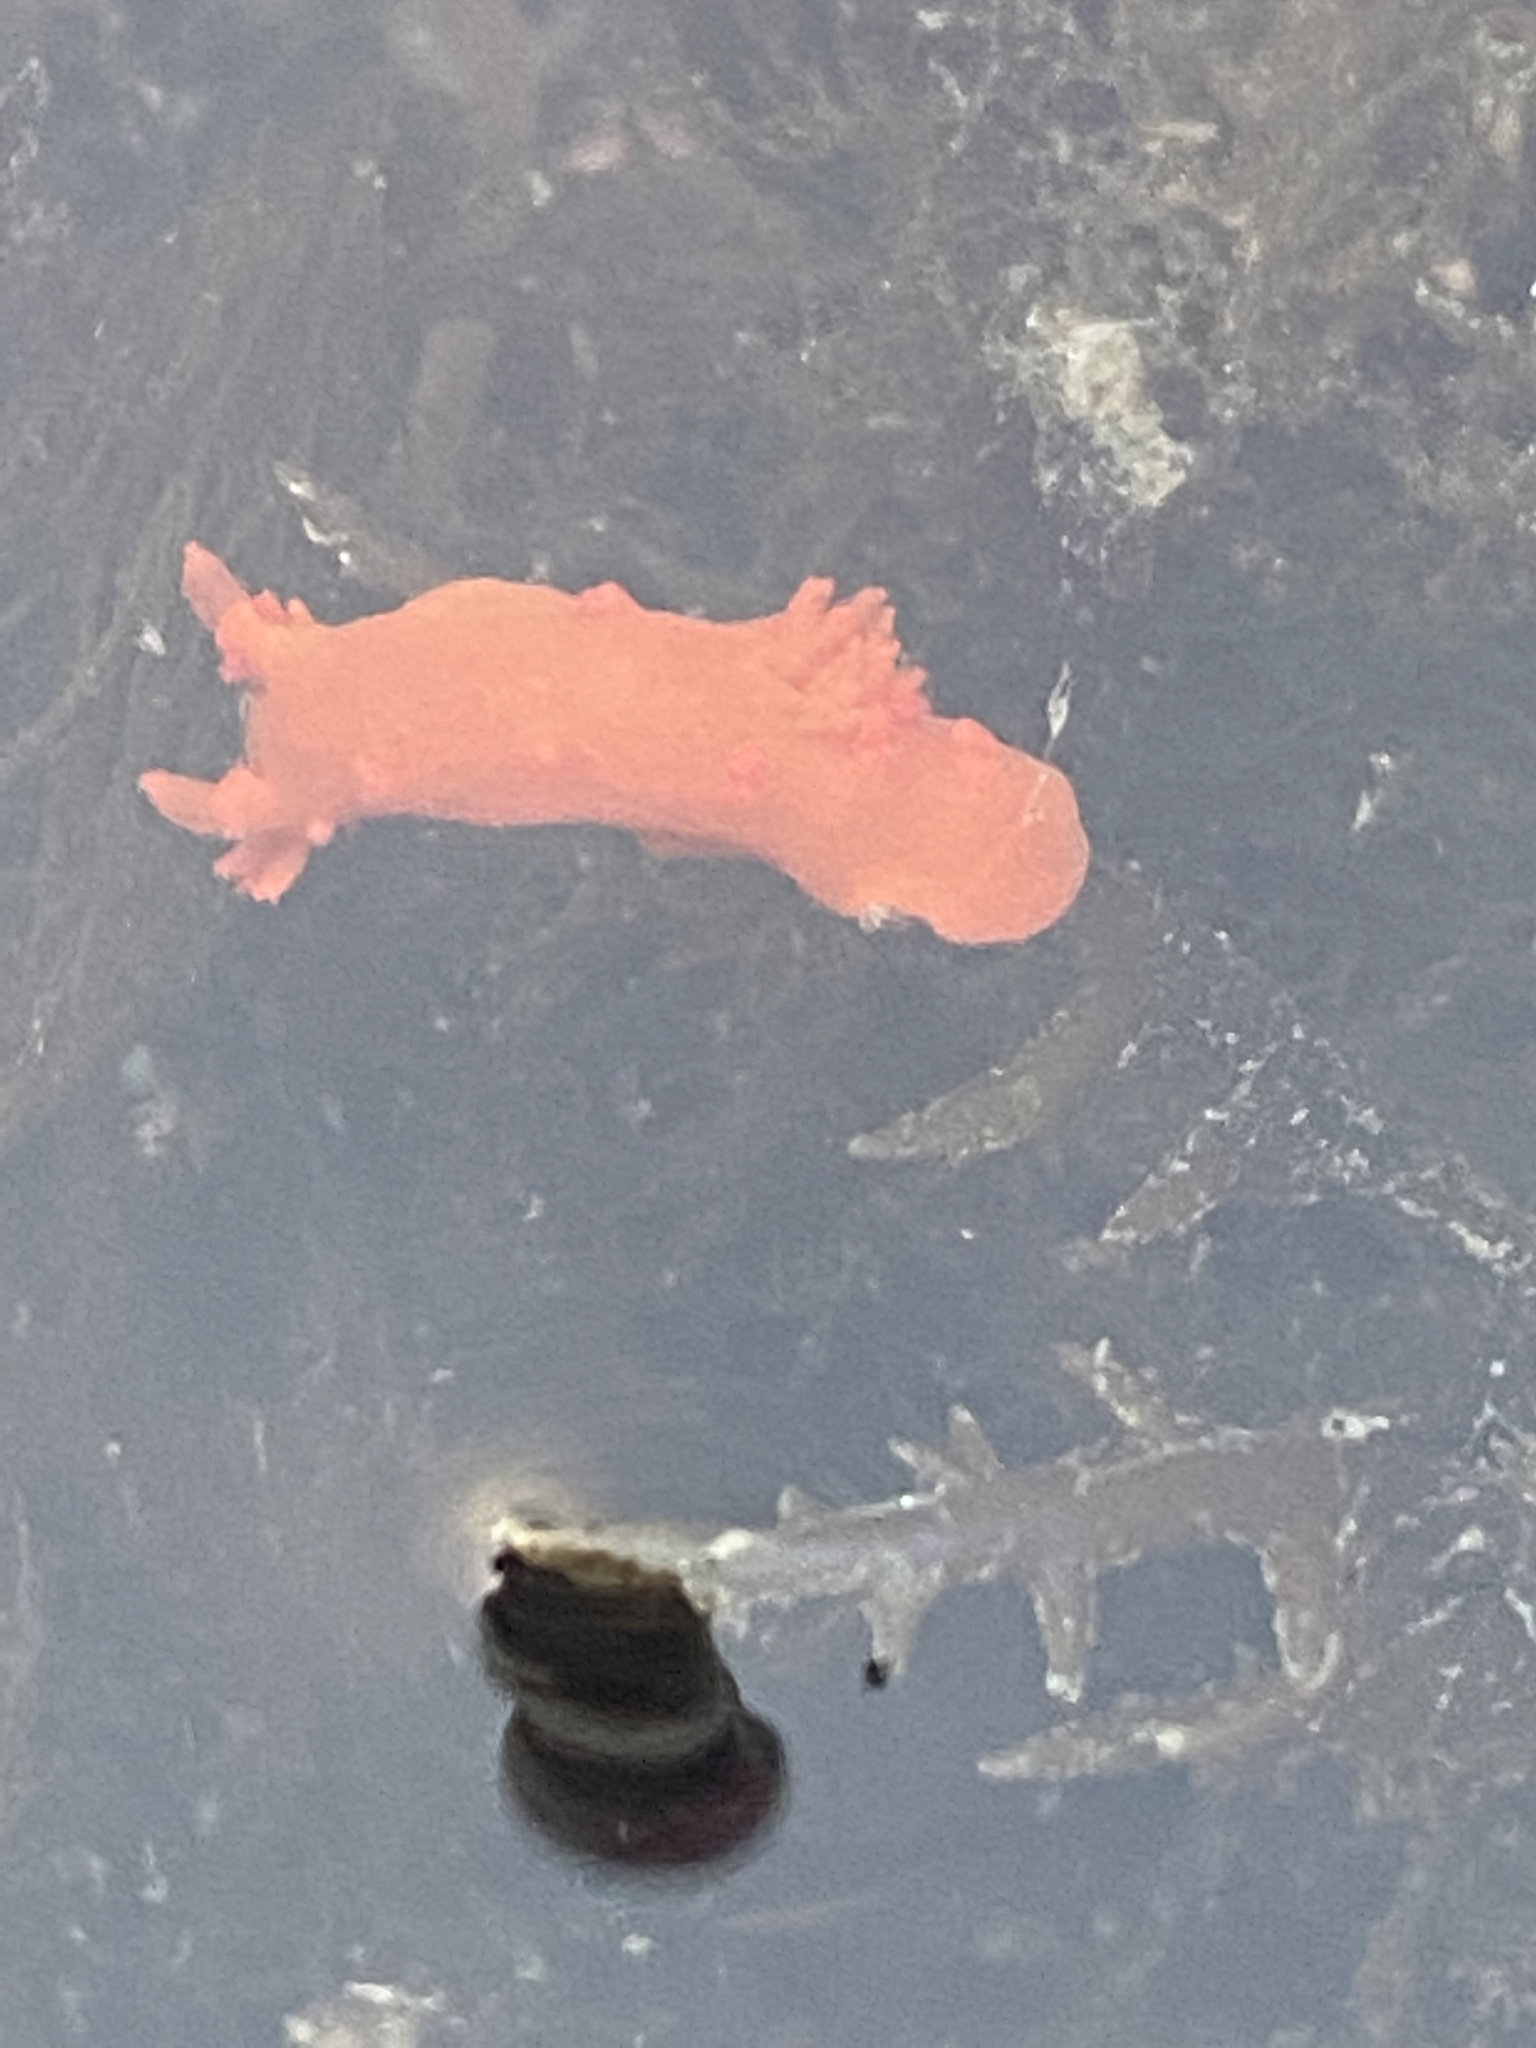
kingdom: Animalia
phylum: Mollusca
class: Gastropoda
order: Nudibranchia
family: Polyceridae
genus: Triopha
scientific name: Triopha maculata
